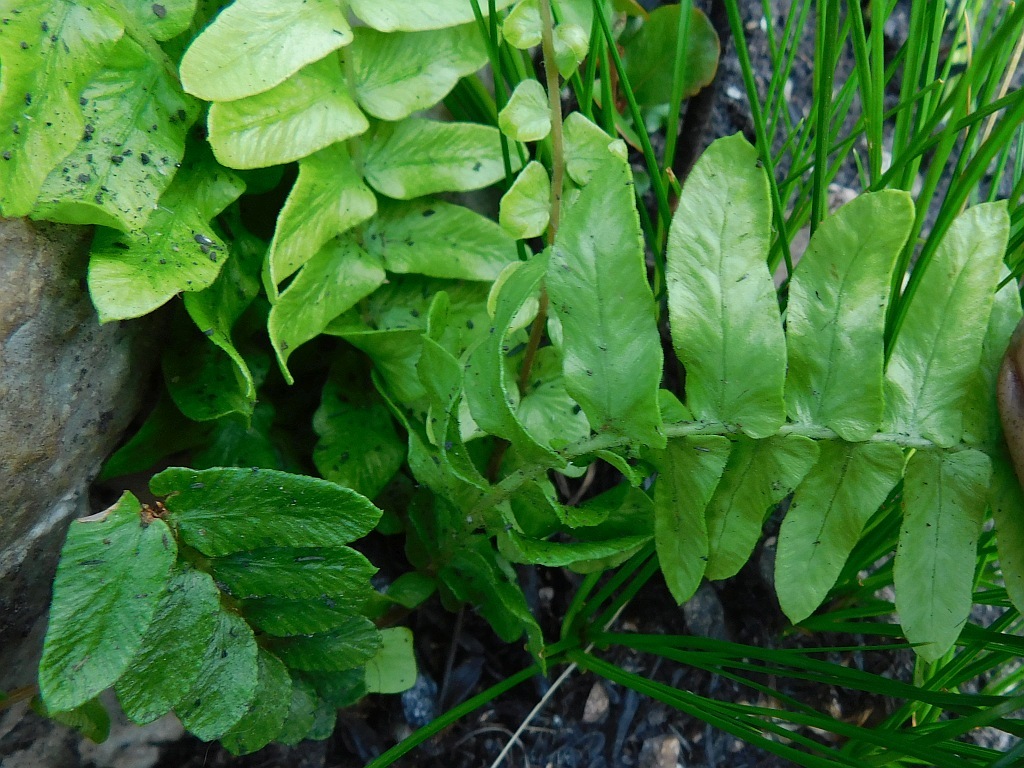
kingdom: Plantae
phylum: Tracheophyta
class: Polypodiopsida
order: Polypodiales
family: Blechnaceae
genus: Blechnum
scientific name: Blechnum australe
